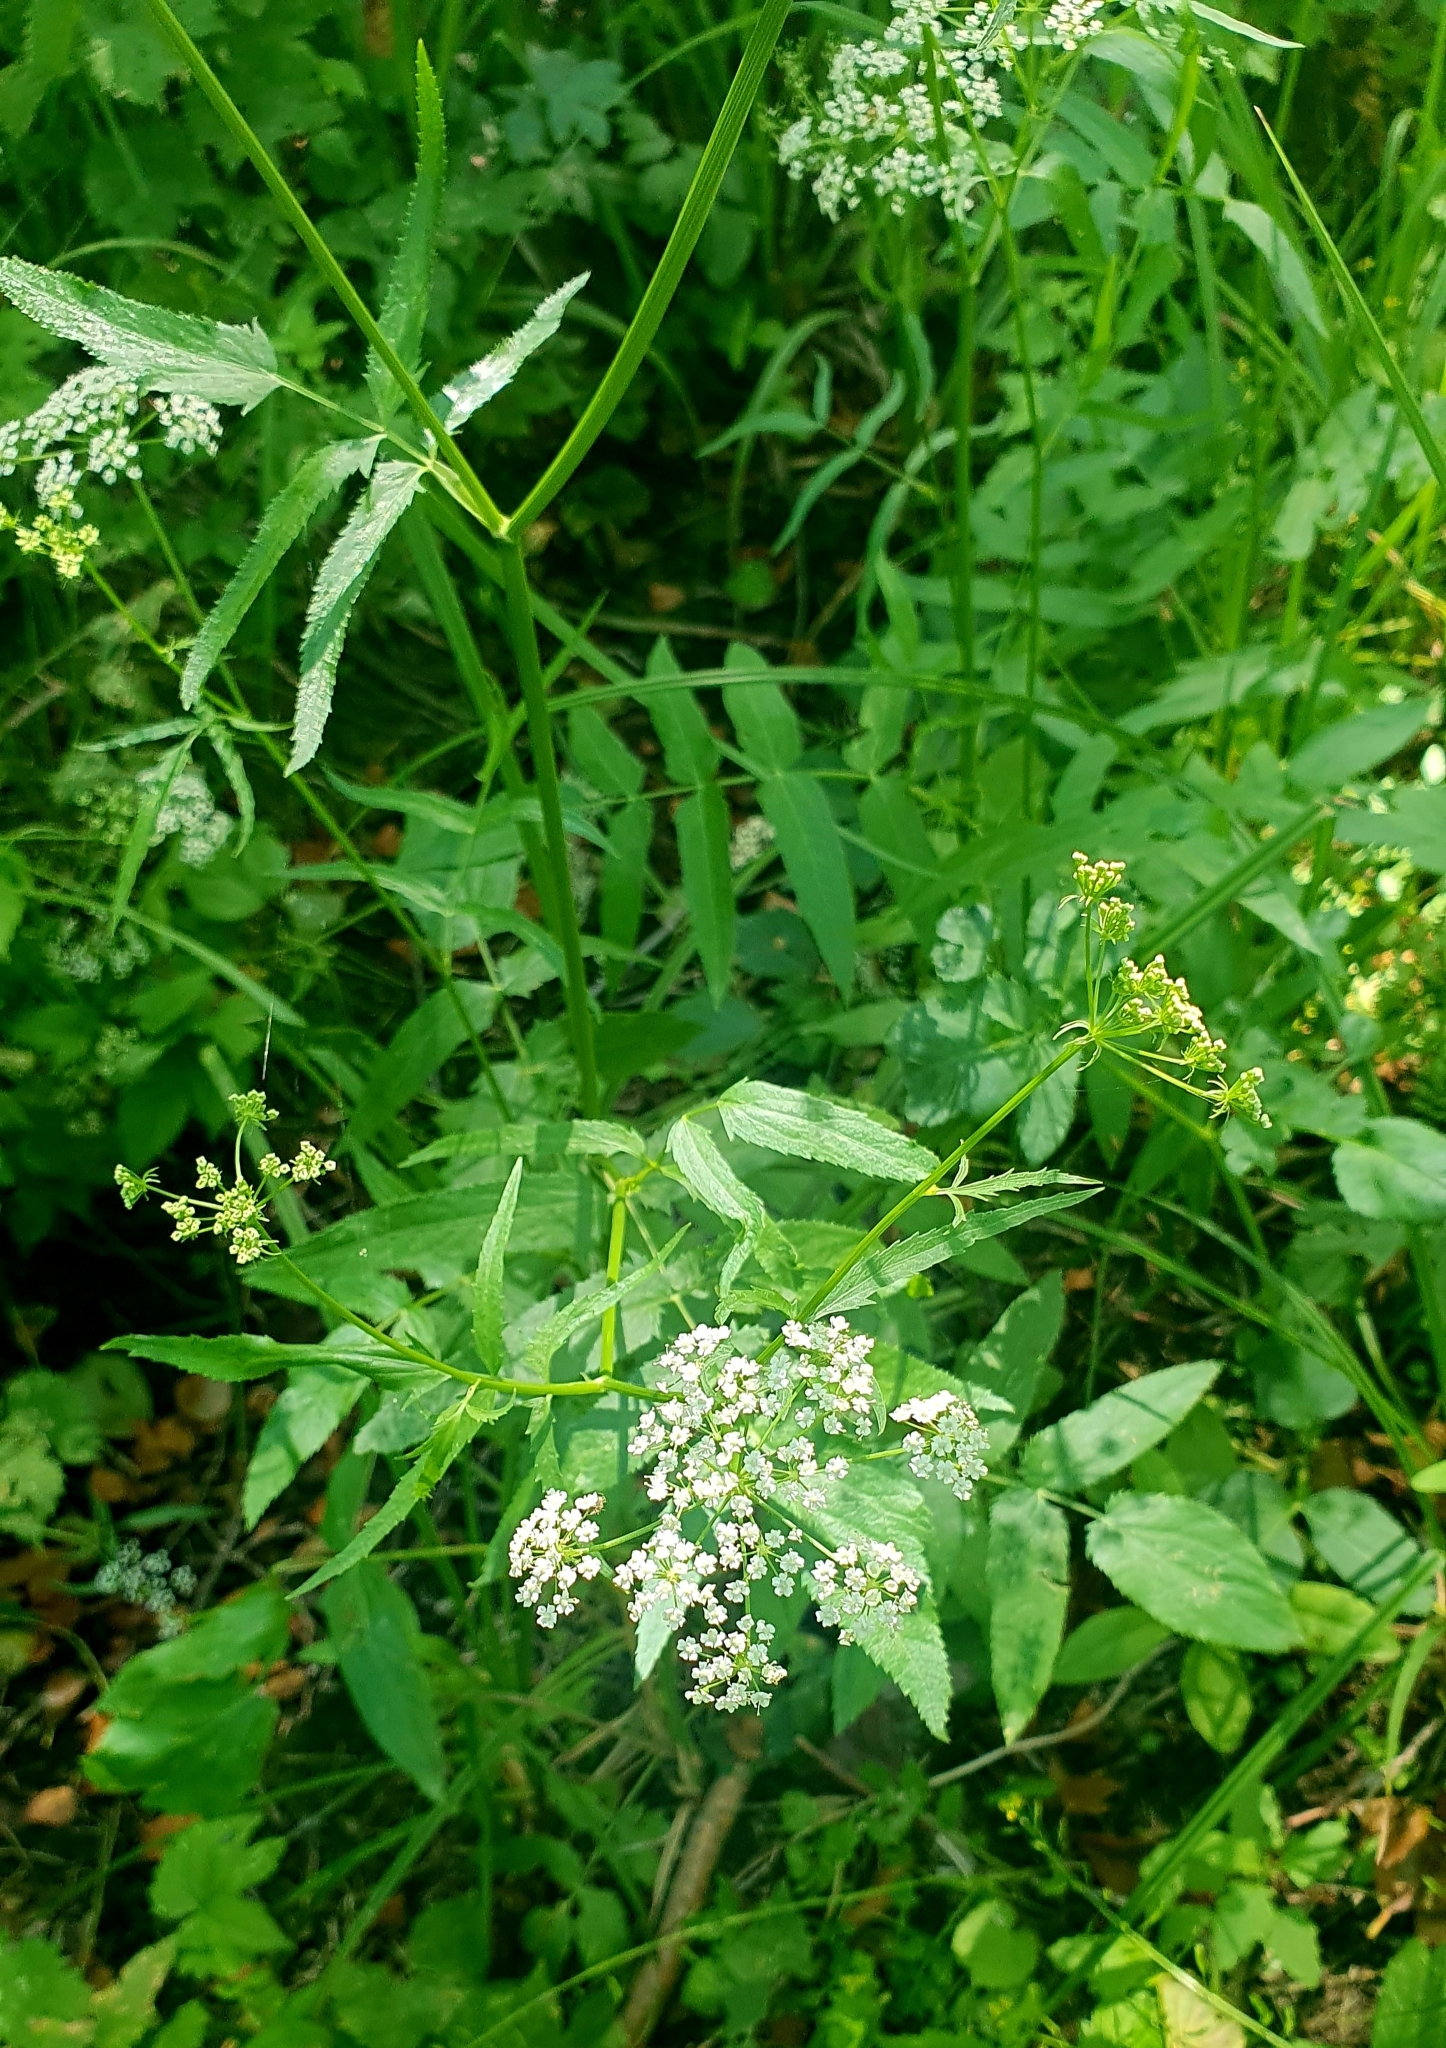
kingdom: Plantae
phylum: Tracheophyta
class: Magnoliopsida
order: Apiales
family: Apiaceae
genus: Sium
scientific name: Sium latifolium
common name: Greater water-parsnip
